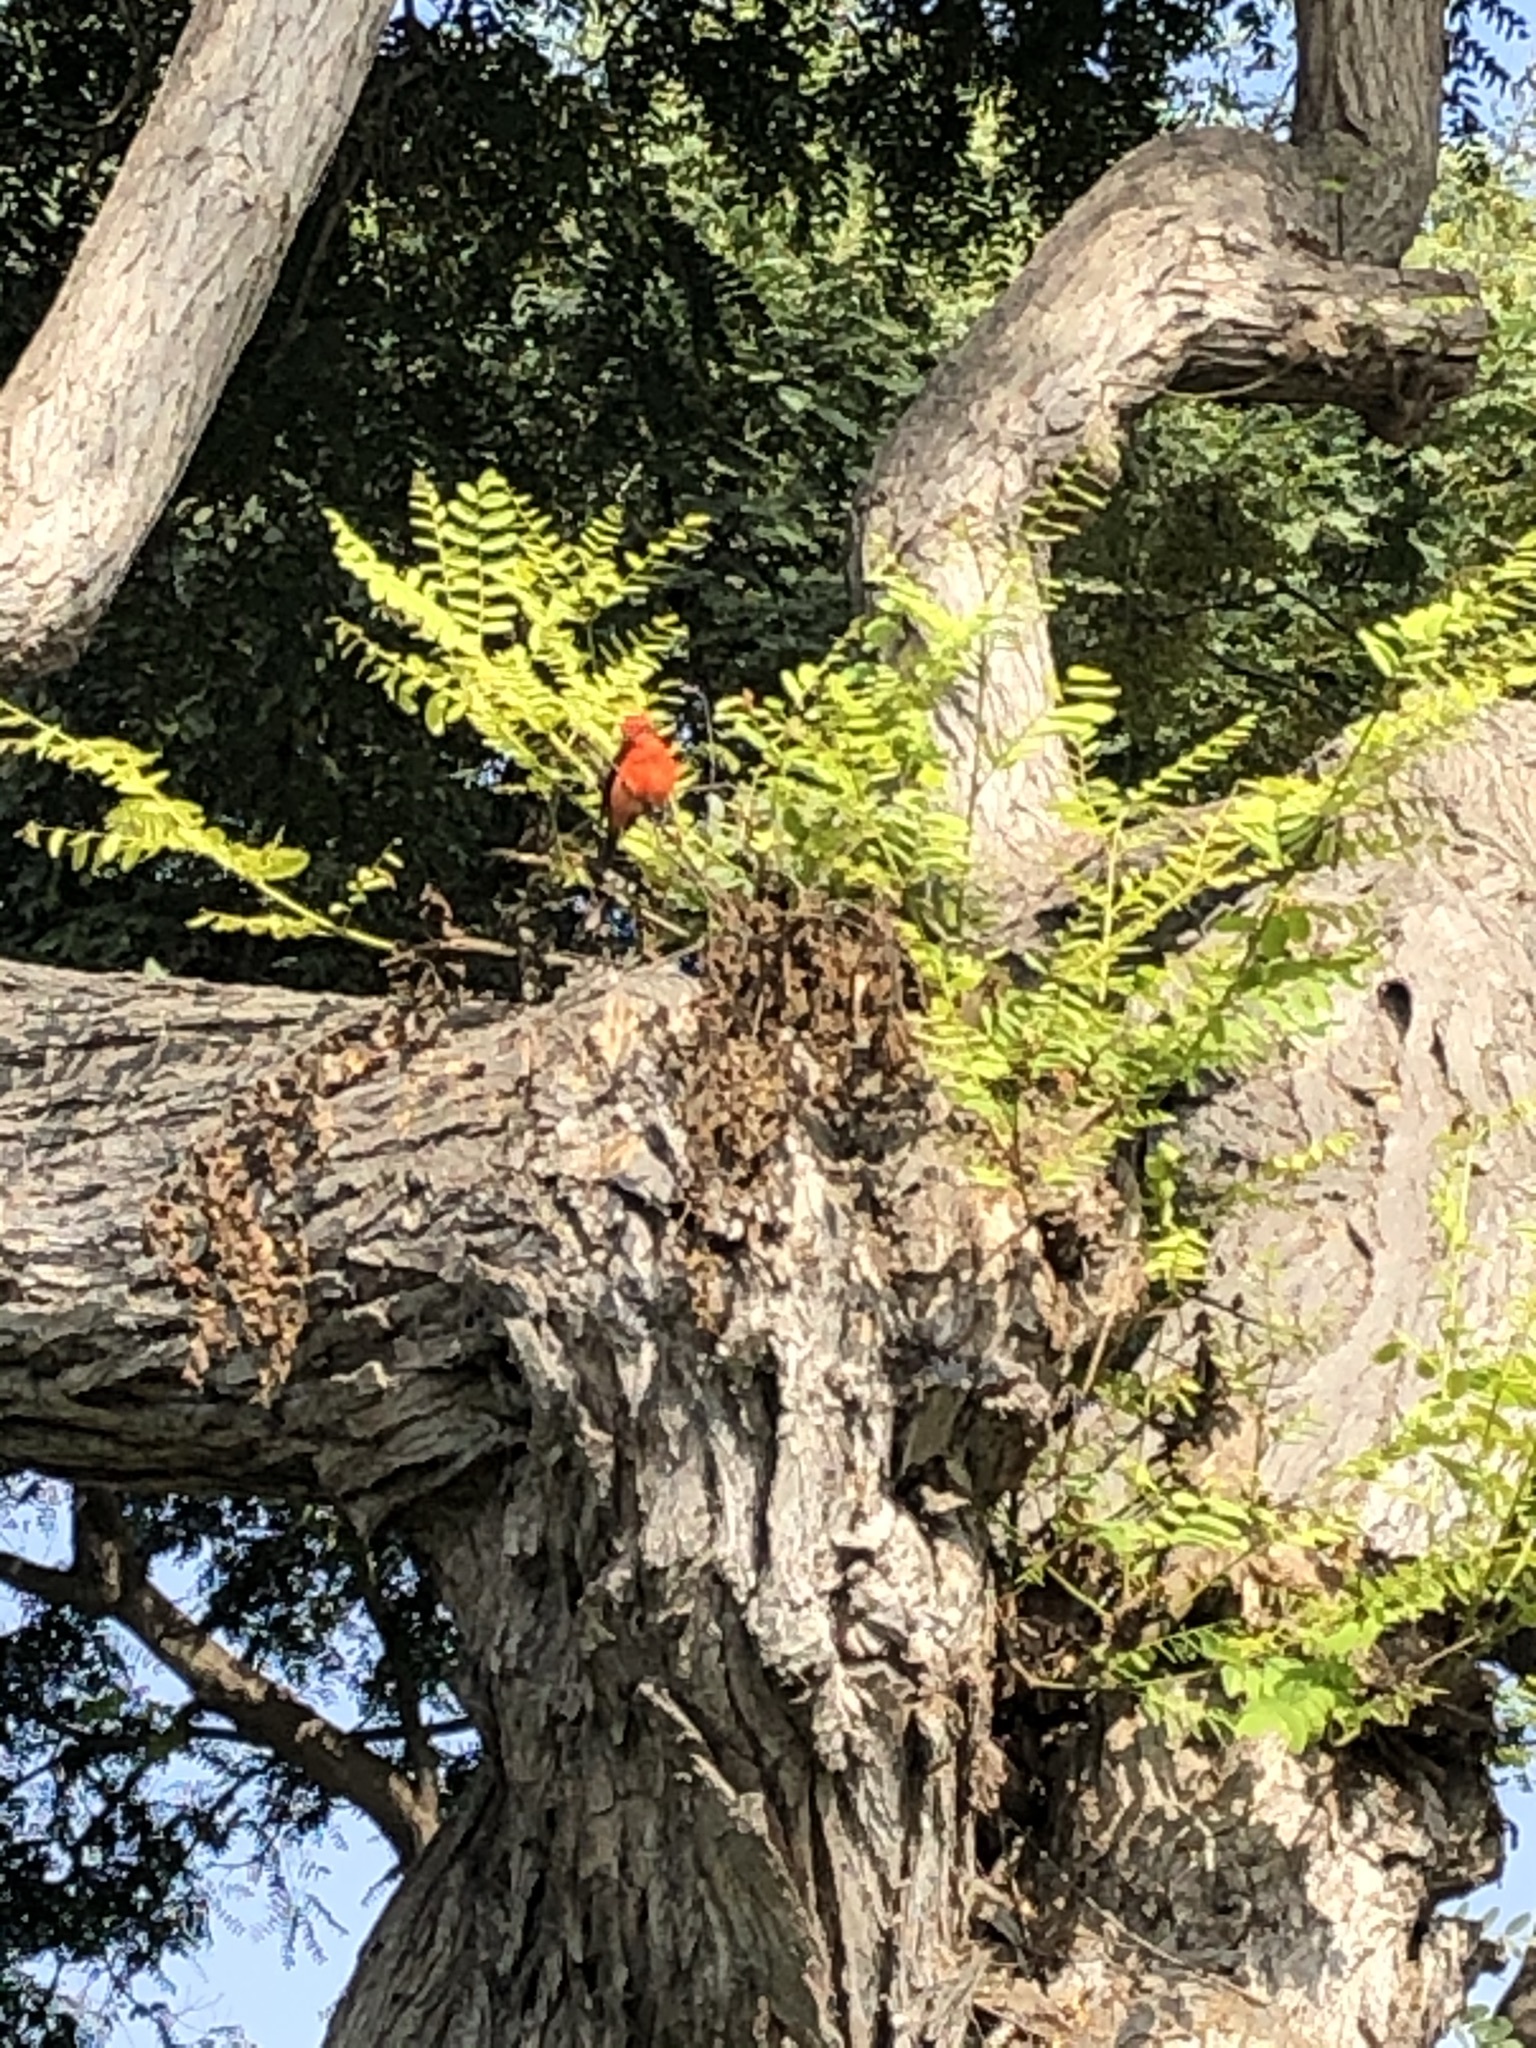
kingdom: Animalia
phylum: Chordata
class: Aves
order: Passeriformes
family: Tyrannidae
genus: Pyrocephalus
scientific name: Pyrocephalus rubinus
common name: Vermilion flycatcher
